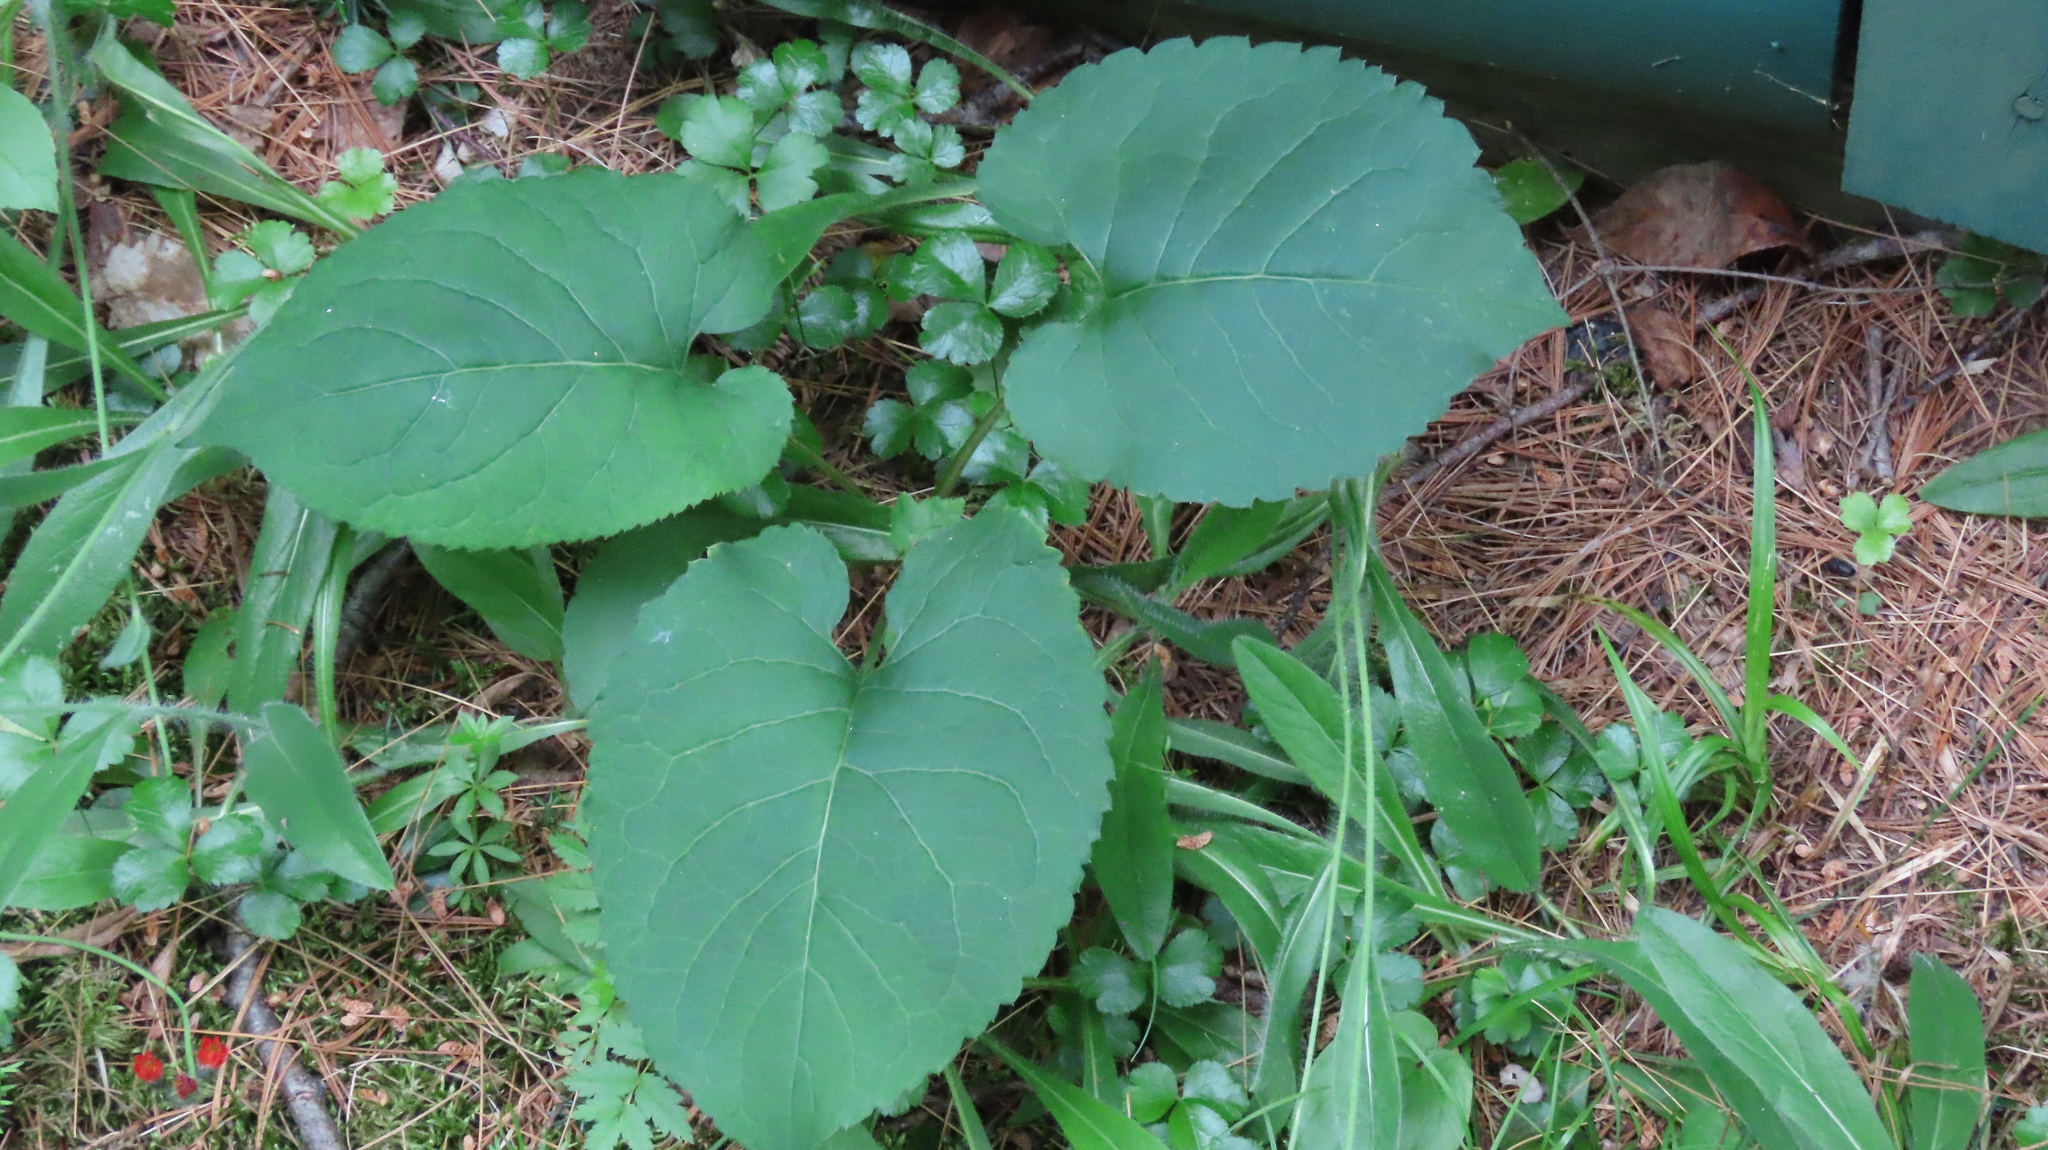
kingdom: Plantae
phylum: Tracheophyta
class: Magnoliopsida
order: Asterales
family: Asteraceae
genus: Eurybia
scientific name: Eurybia macrophylla
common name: Big-leaved aster
